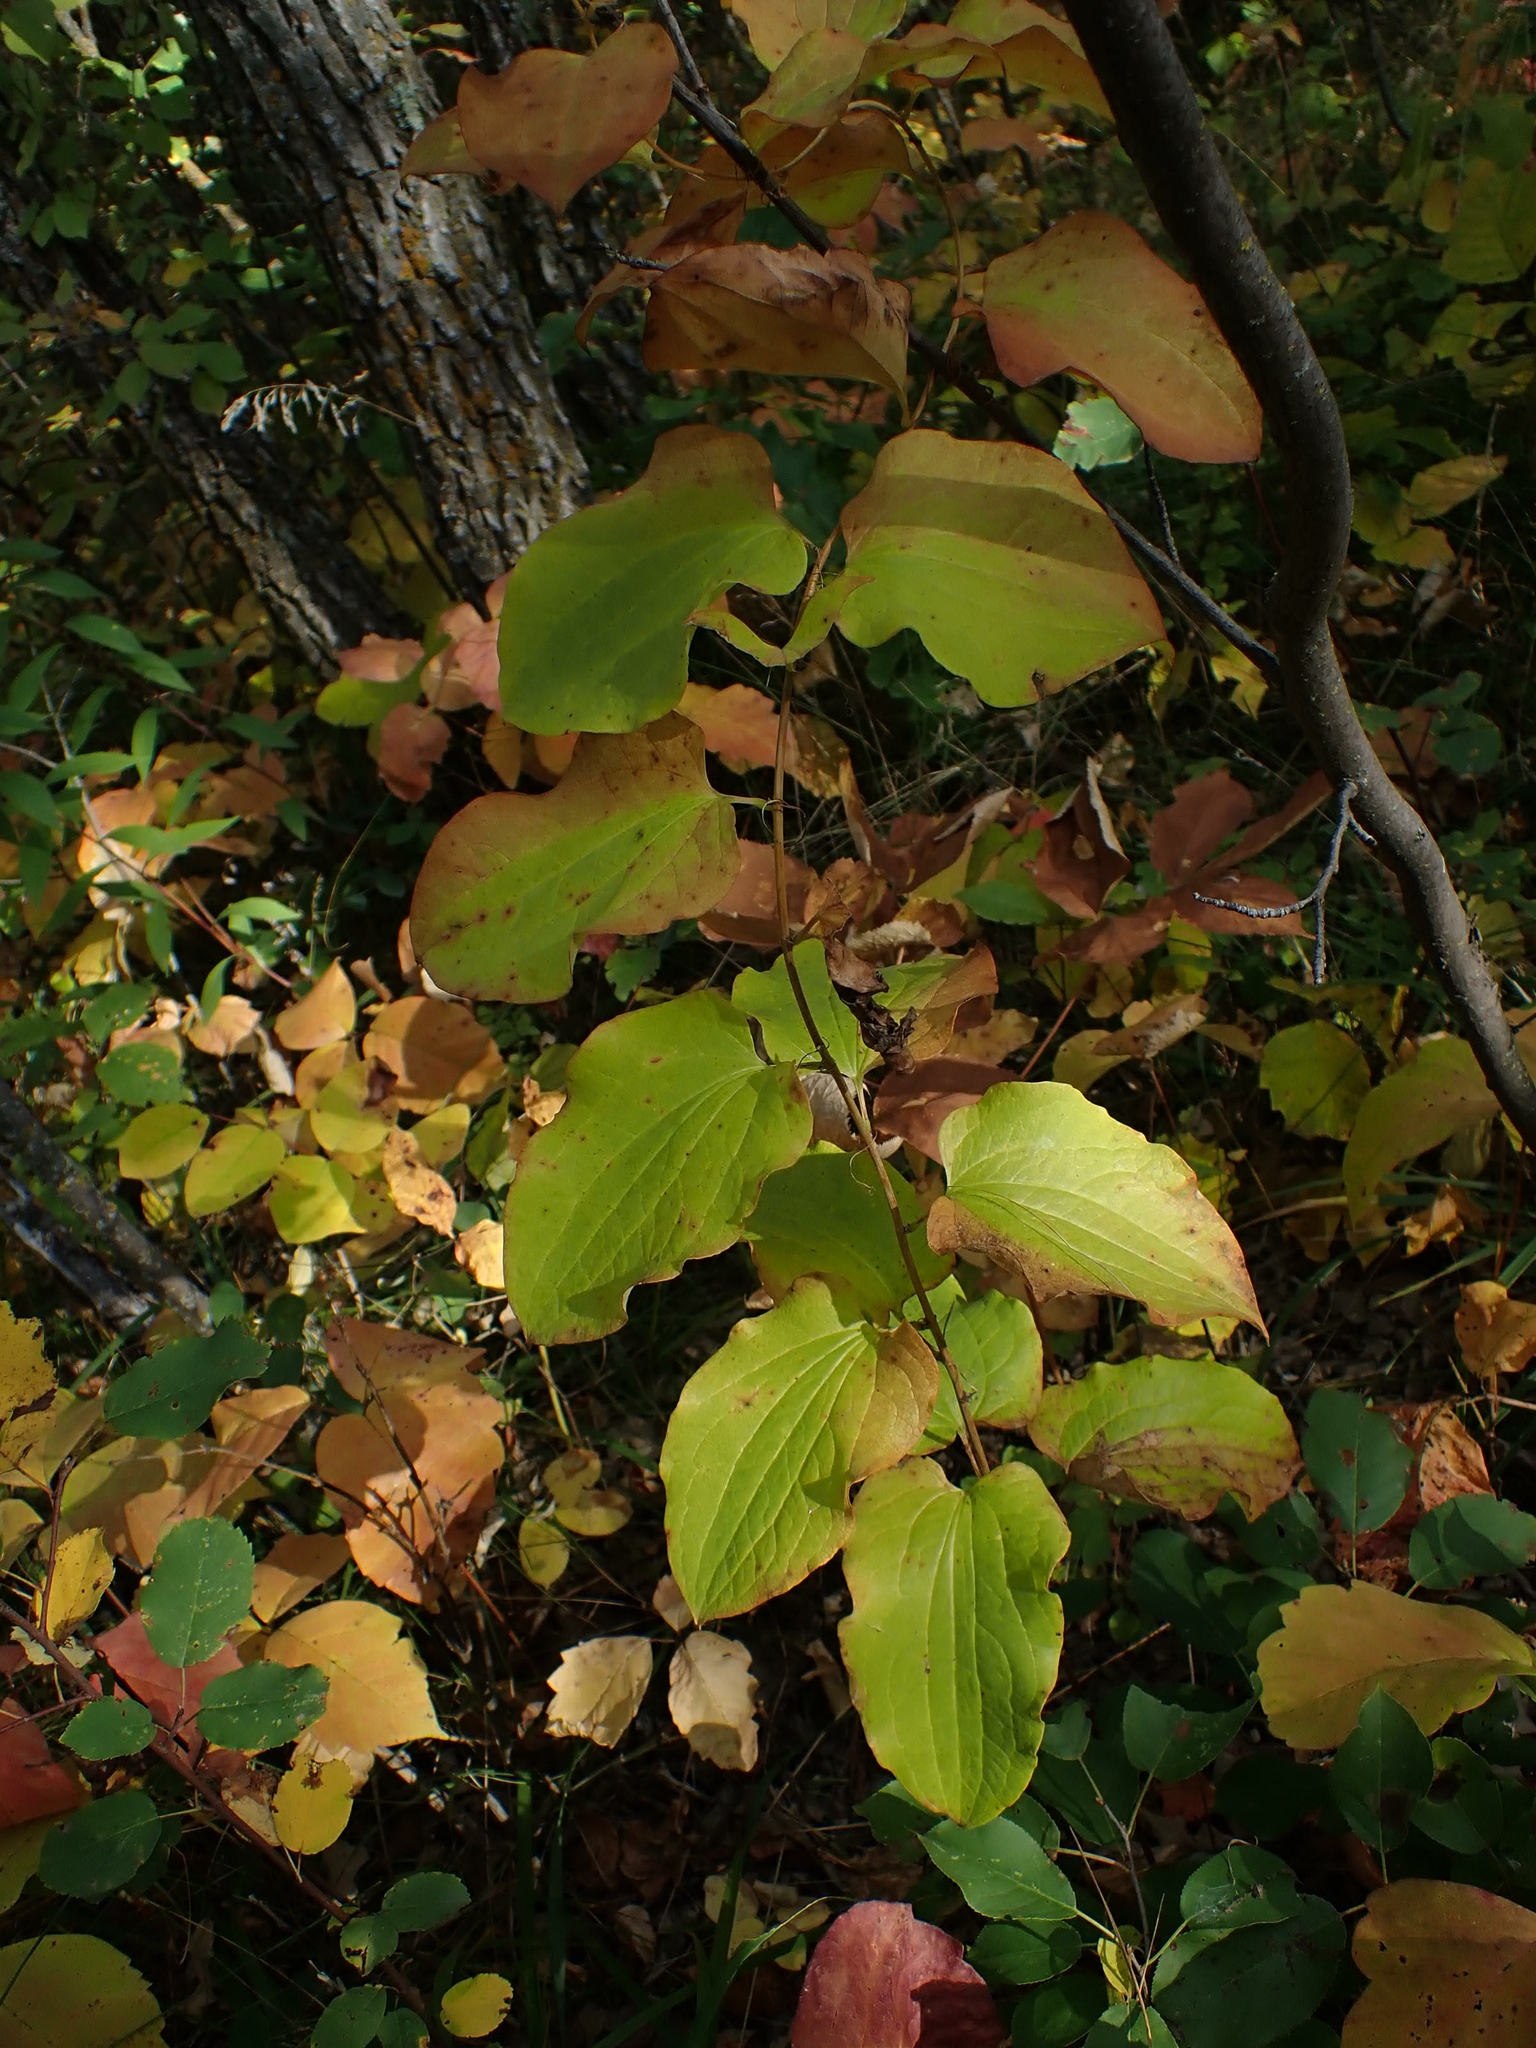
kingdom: Plantae
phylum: Tracheophyta
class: Liliopsida
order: Liliales
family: Smilacaceae
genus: Smilax
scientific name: Smilax lasioneura
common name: Blue ridge carrionflower
